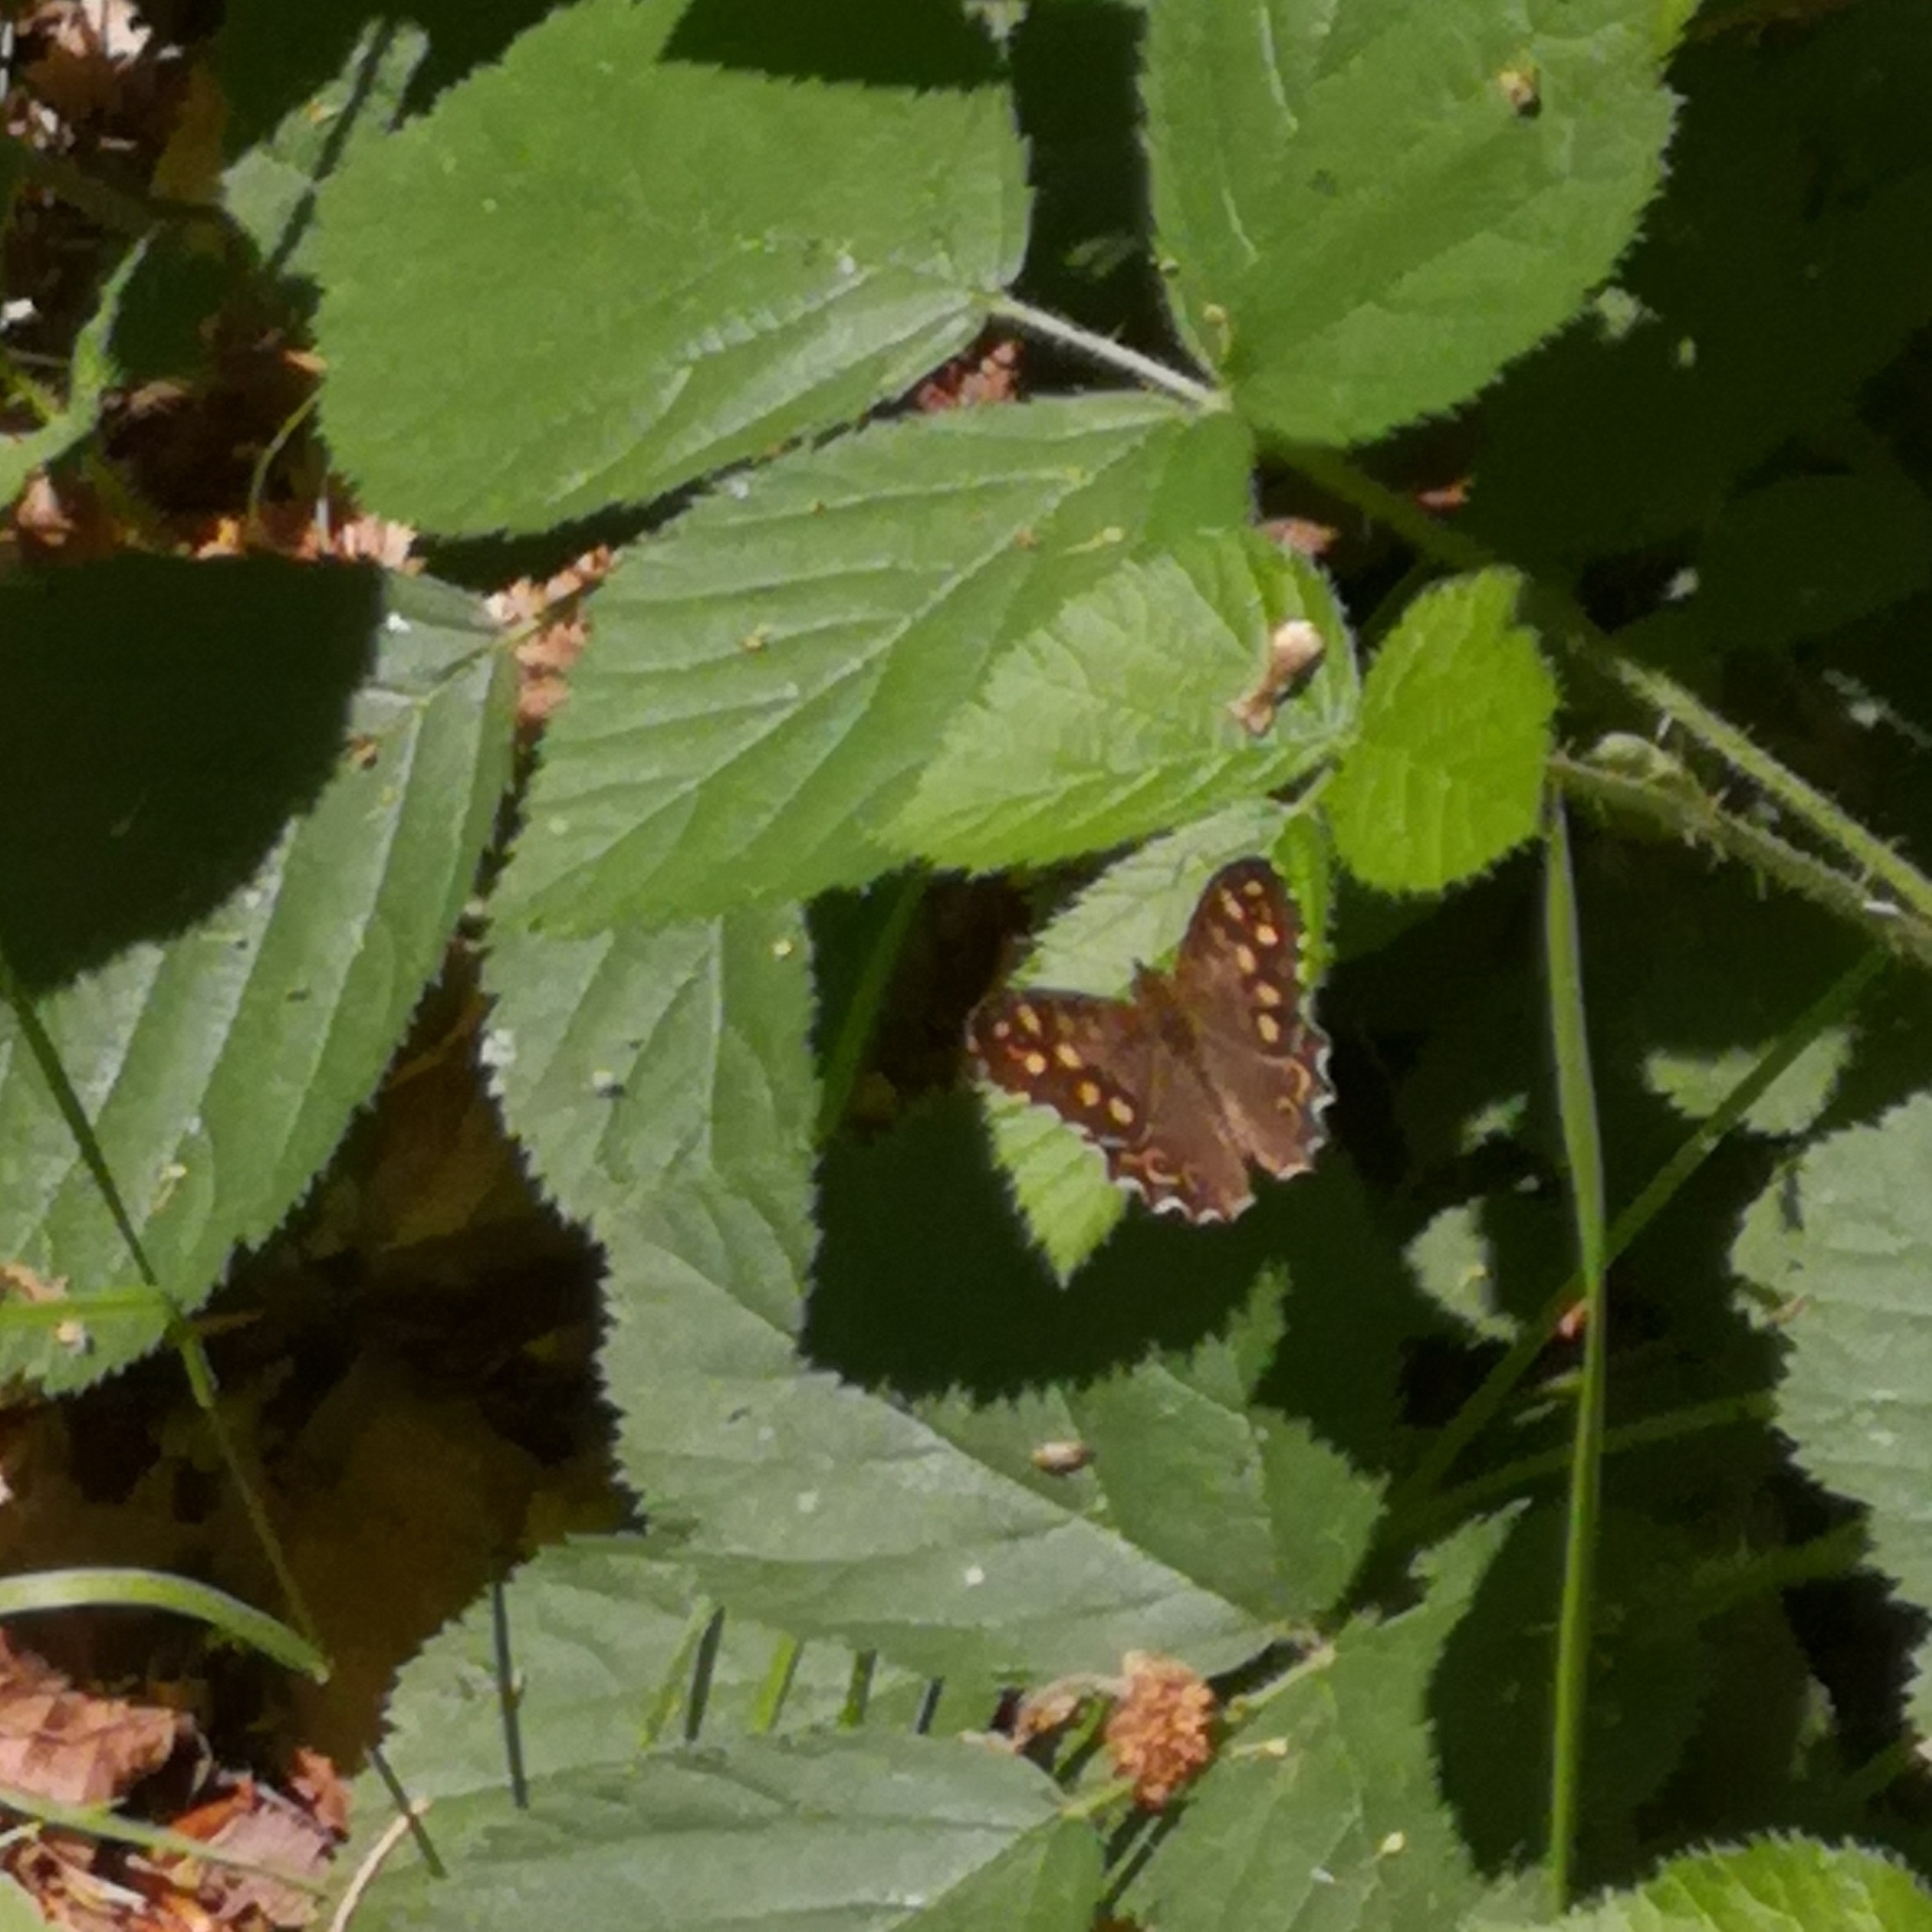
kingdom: Animalia
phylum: Arthropoda
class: Insecta
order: Lepidoptera
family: Nymphalidae
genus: Pararge
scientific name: Pararge aegeria
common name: Speckled wood
